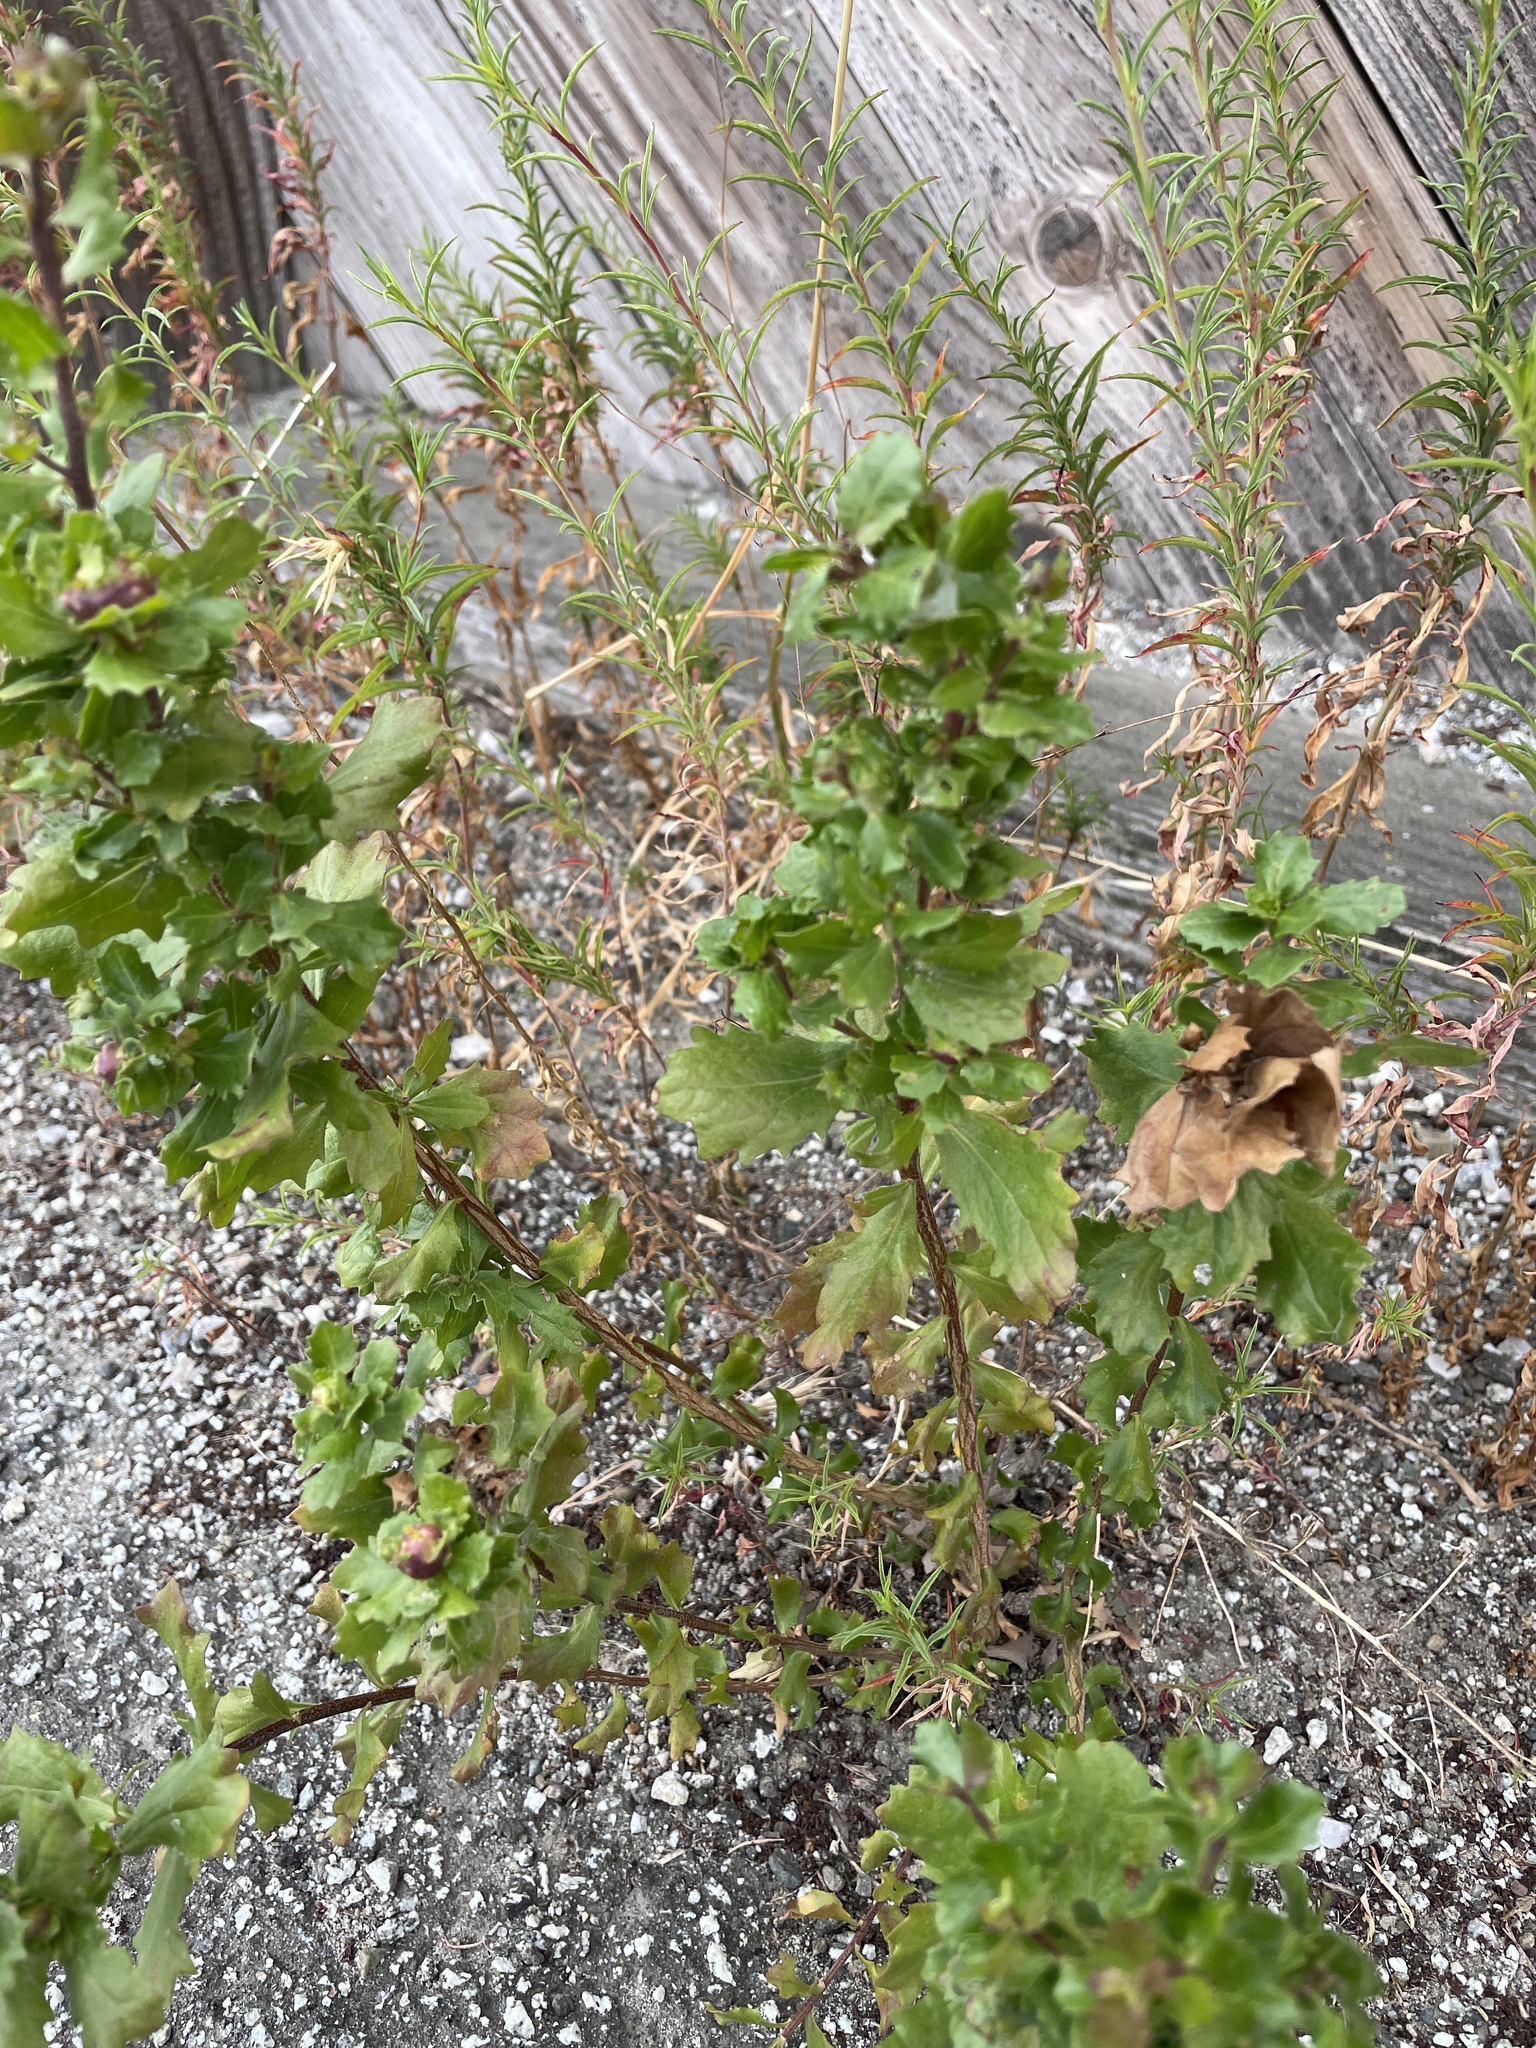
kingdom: Plantae
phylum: Tracheophyta
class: Magnoliopsida
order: Asterales
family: Asteraceae
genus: Baccharis
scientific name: Baccharis pilularis
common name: Coyotebrush
